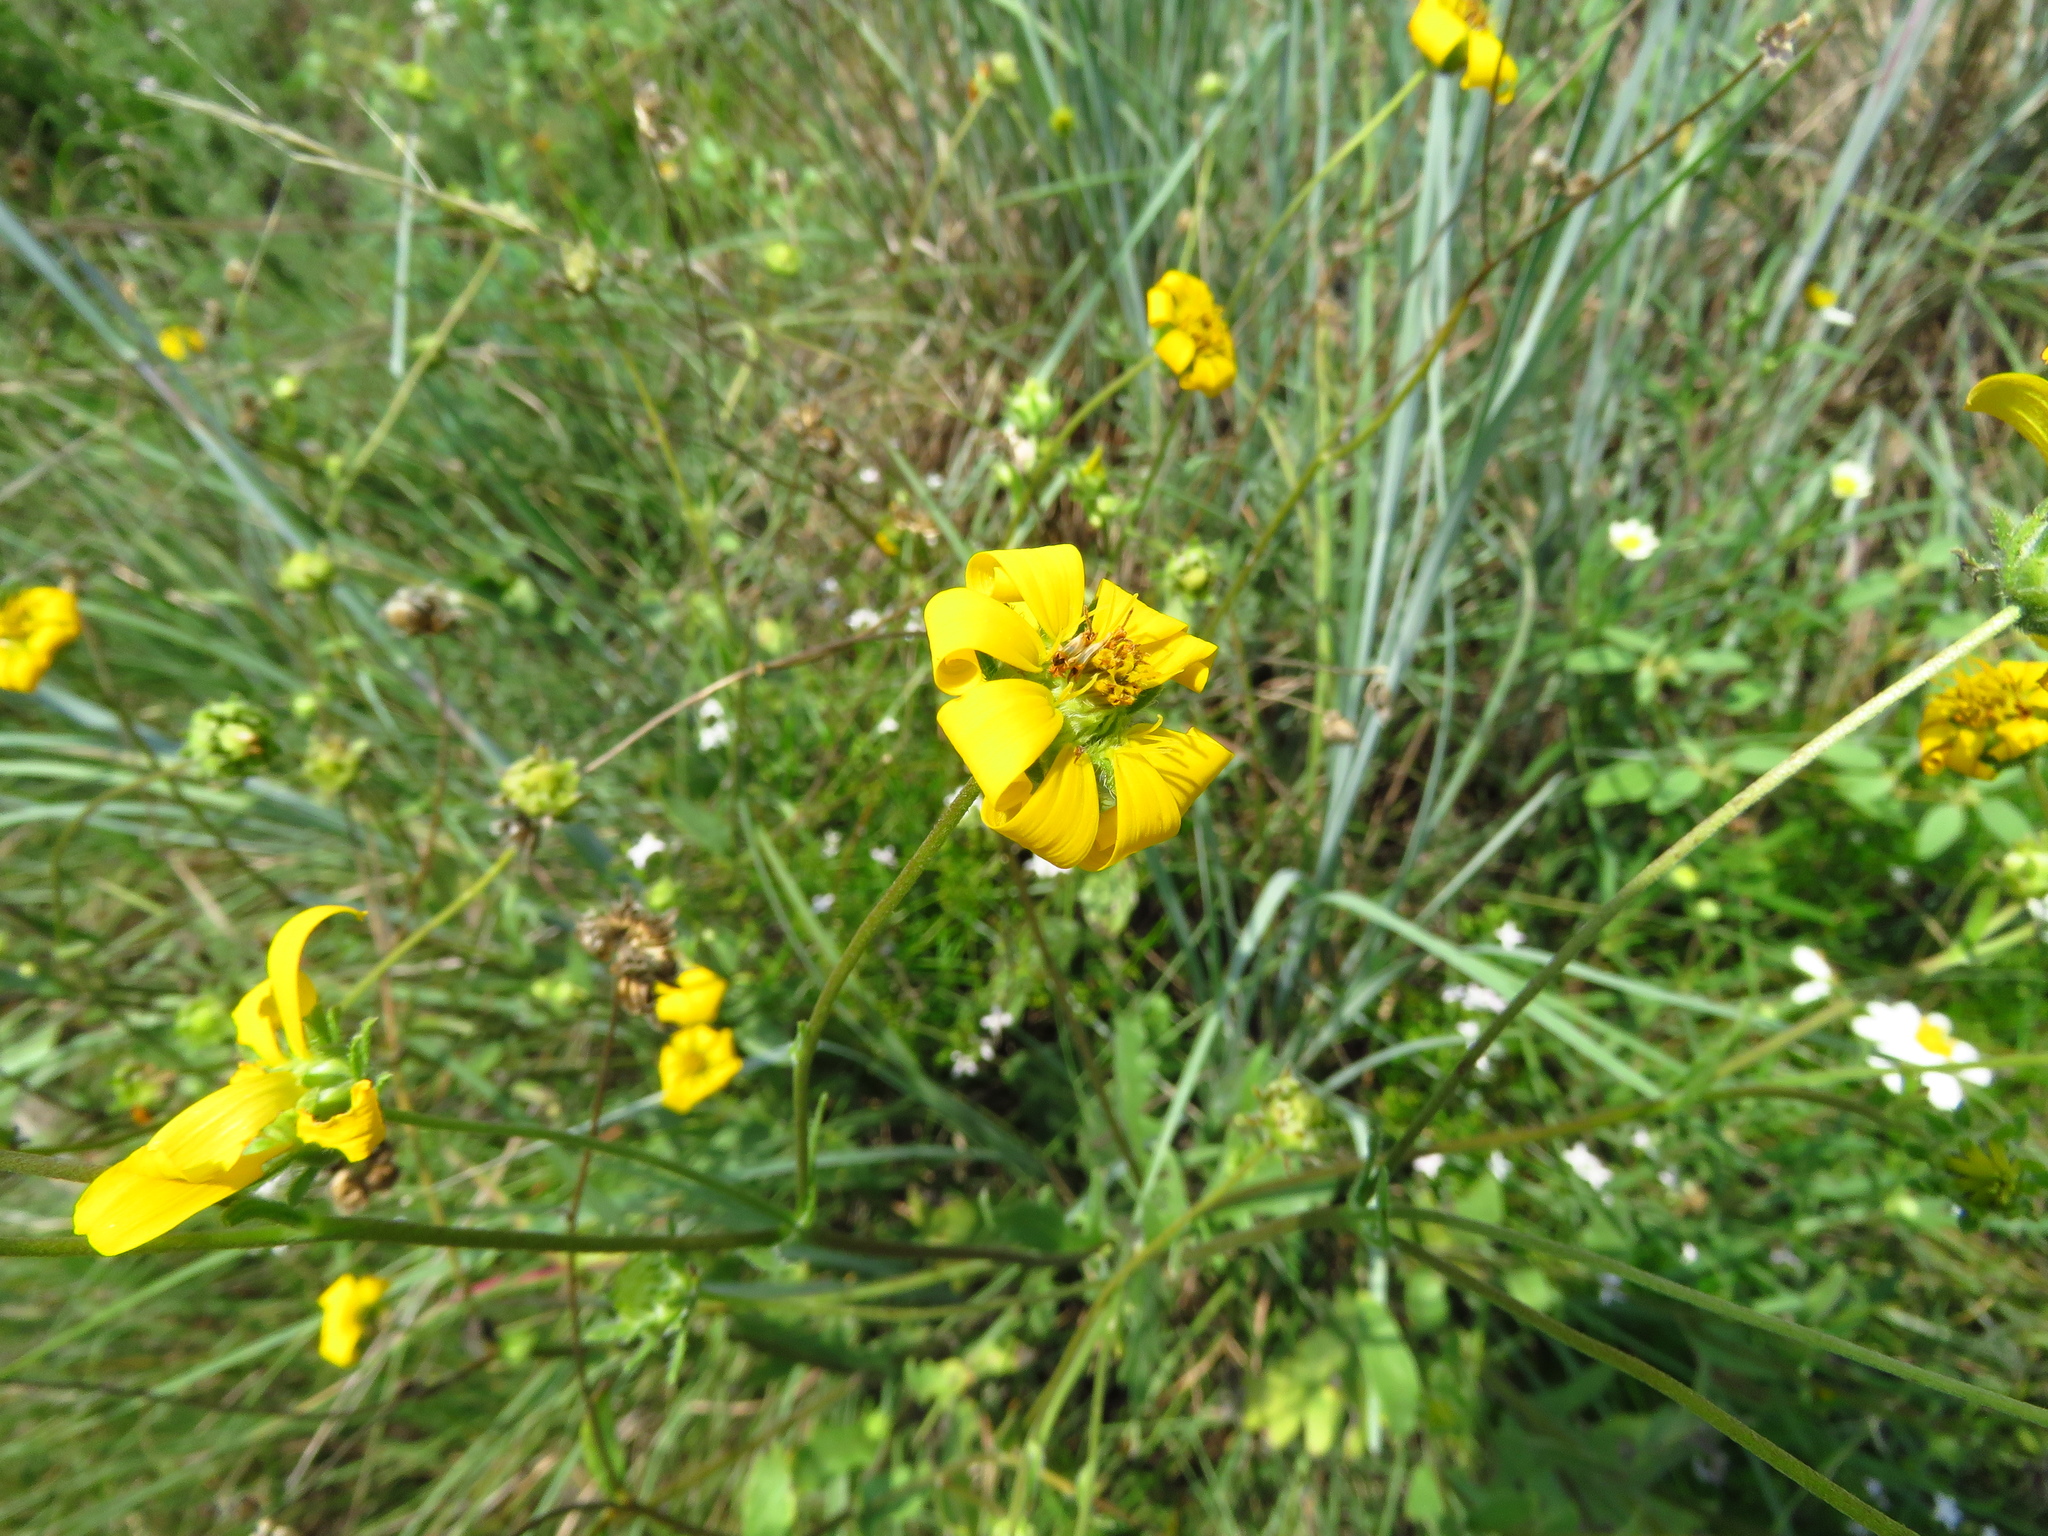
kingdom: Plantae
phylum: Tracheophyta
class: Magnoliopsida
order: Asterales
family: Asteraceae
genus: Engelmannia
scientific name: Engelmannia peristenia
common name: Engelmann's daisy
